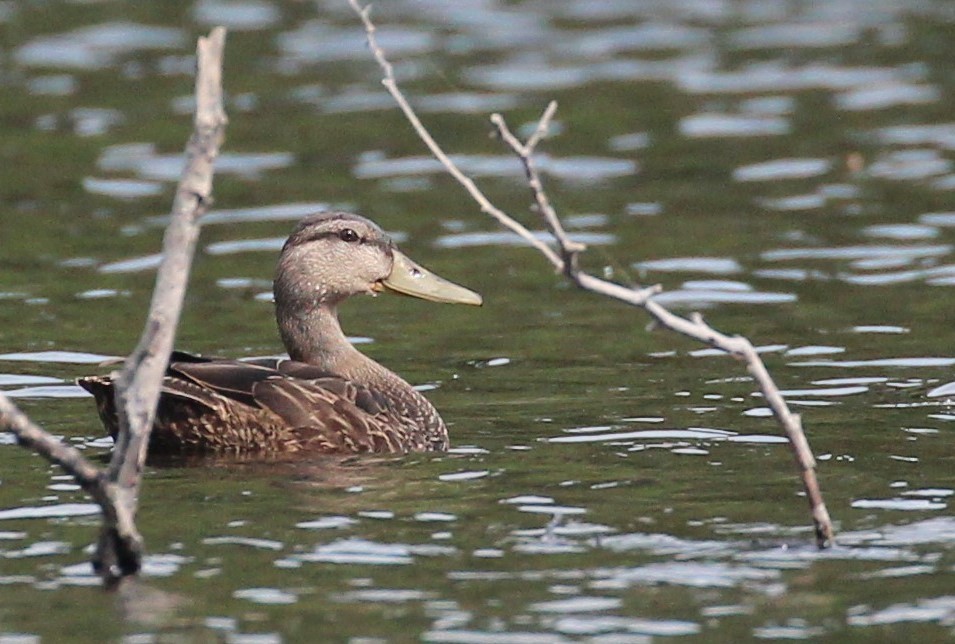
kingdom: Animalia
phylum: Chordata
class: Aves
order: Anseriformes
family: Anatidae
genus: Anas
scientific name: Anas rubripes
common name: American black duck
